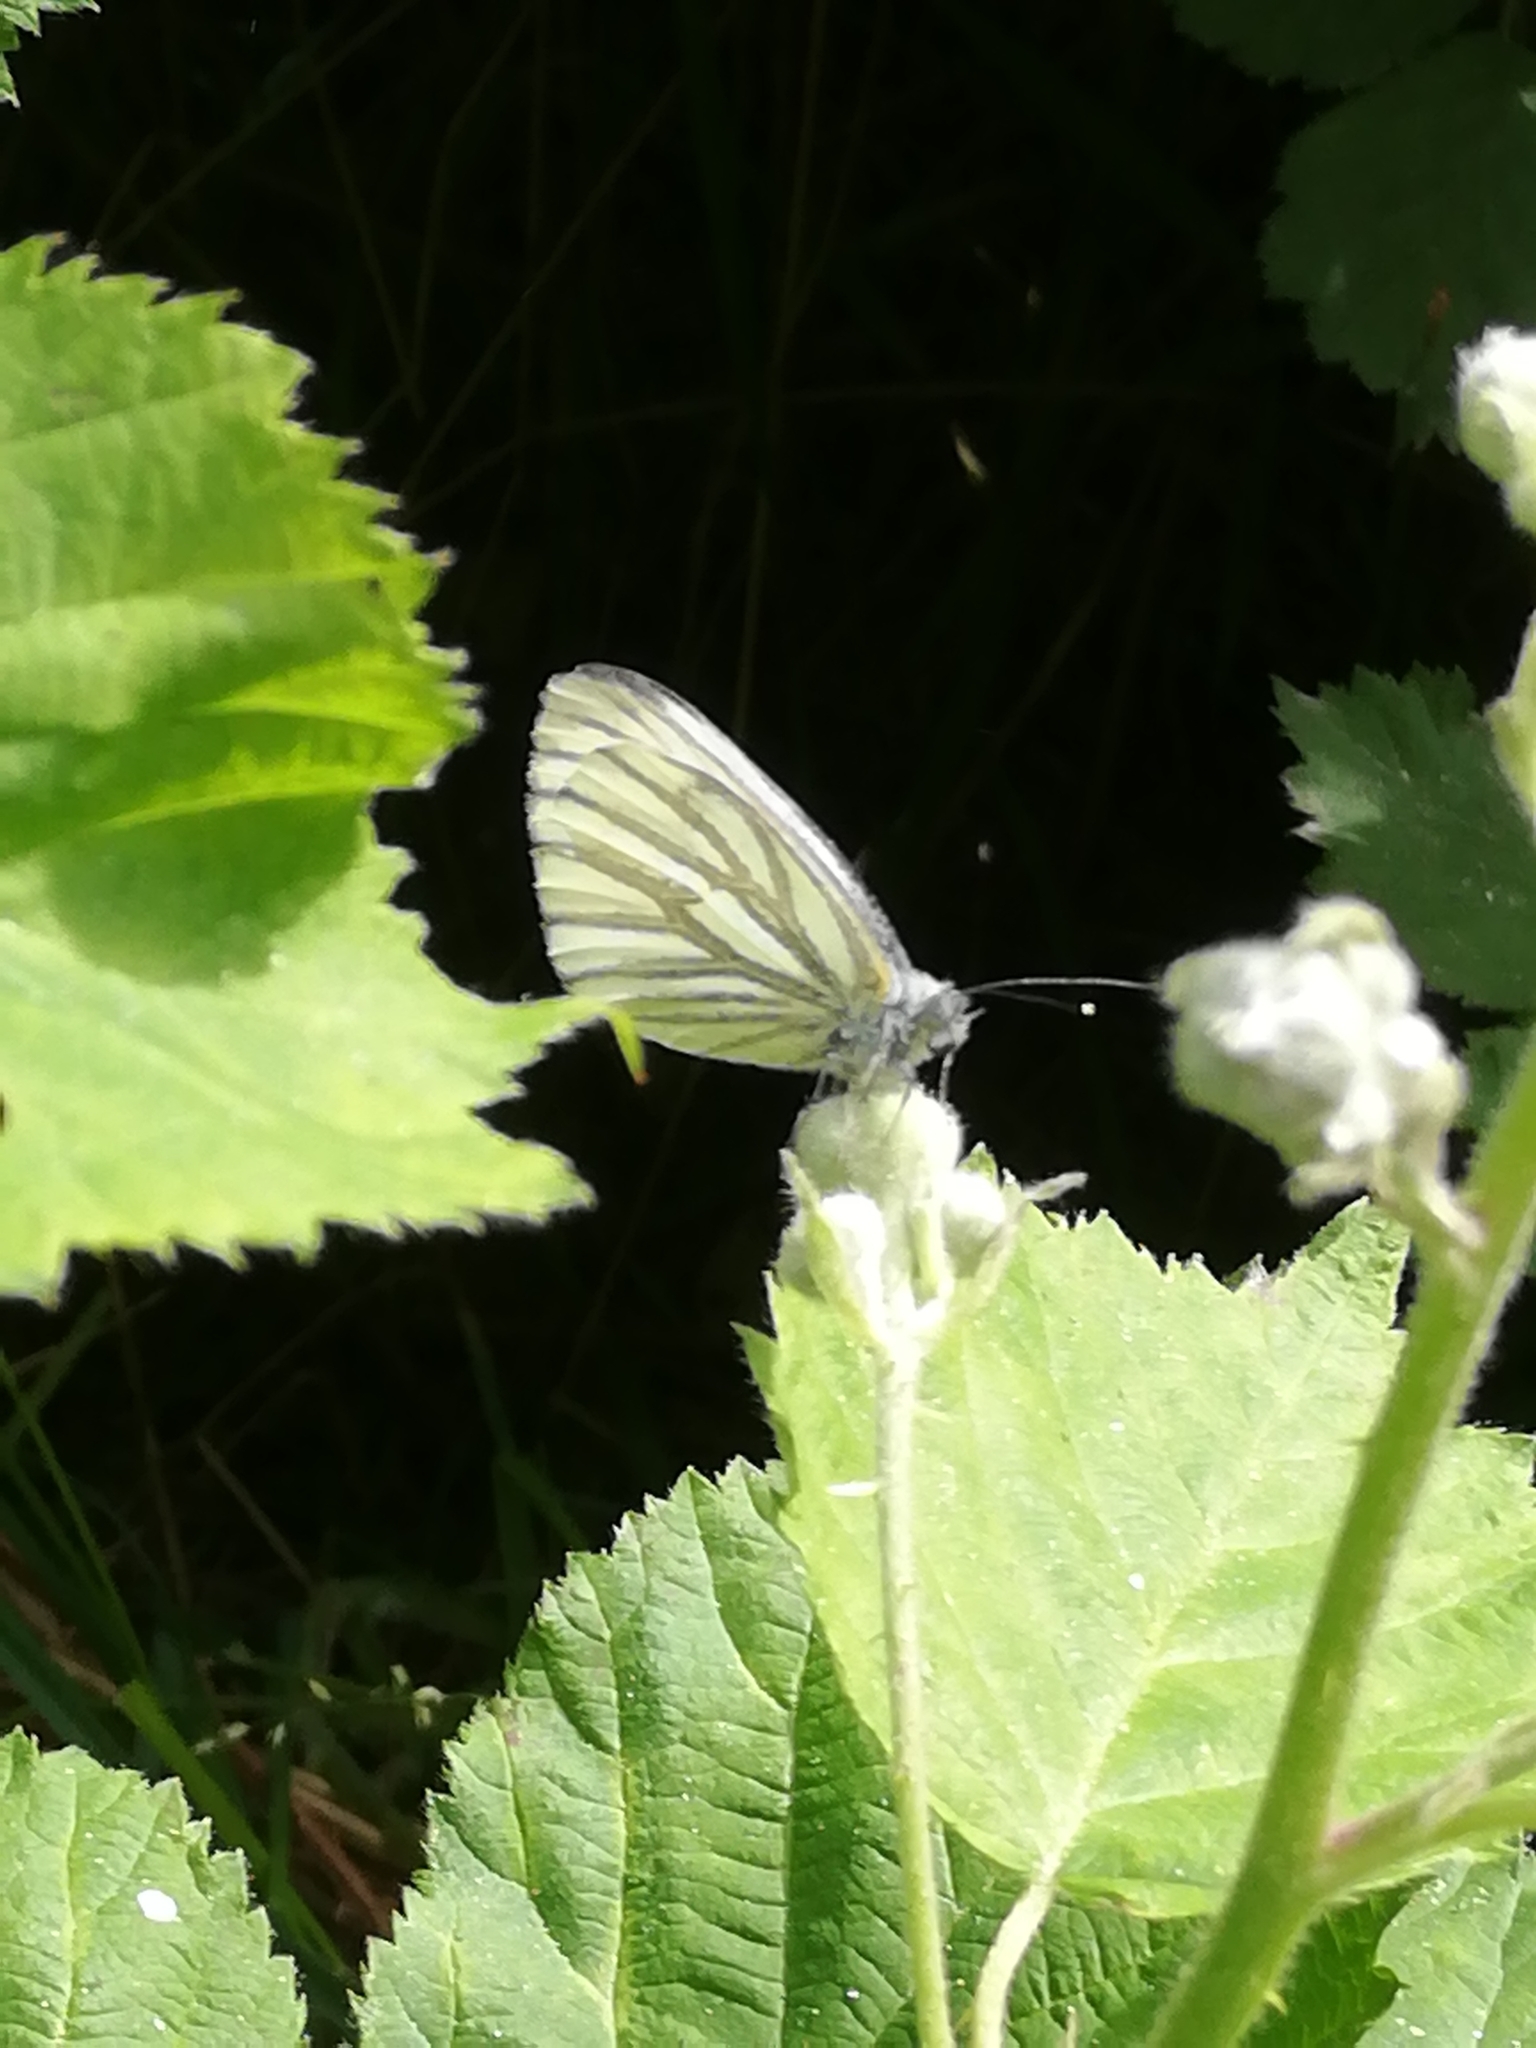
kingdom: Animalia
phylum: Arthropoda
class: Insecta
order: Lepidoptera
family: Pieridae
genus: Pieris
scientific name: Pieris napi
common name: Green-veined white
